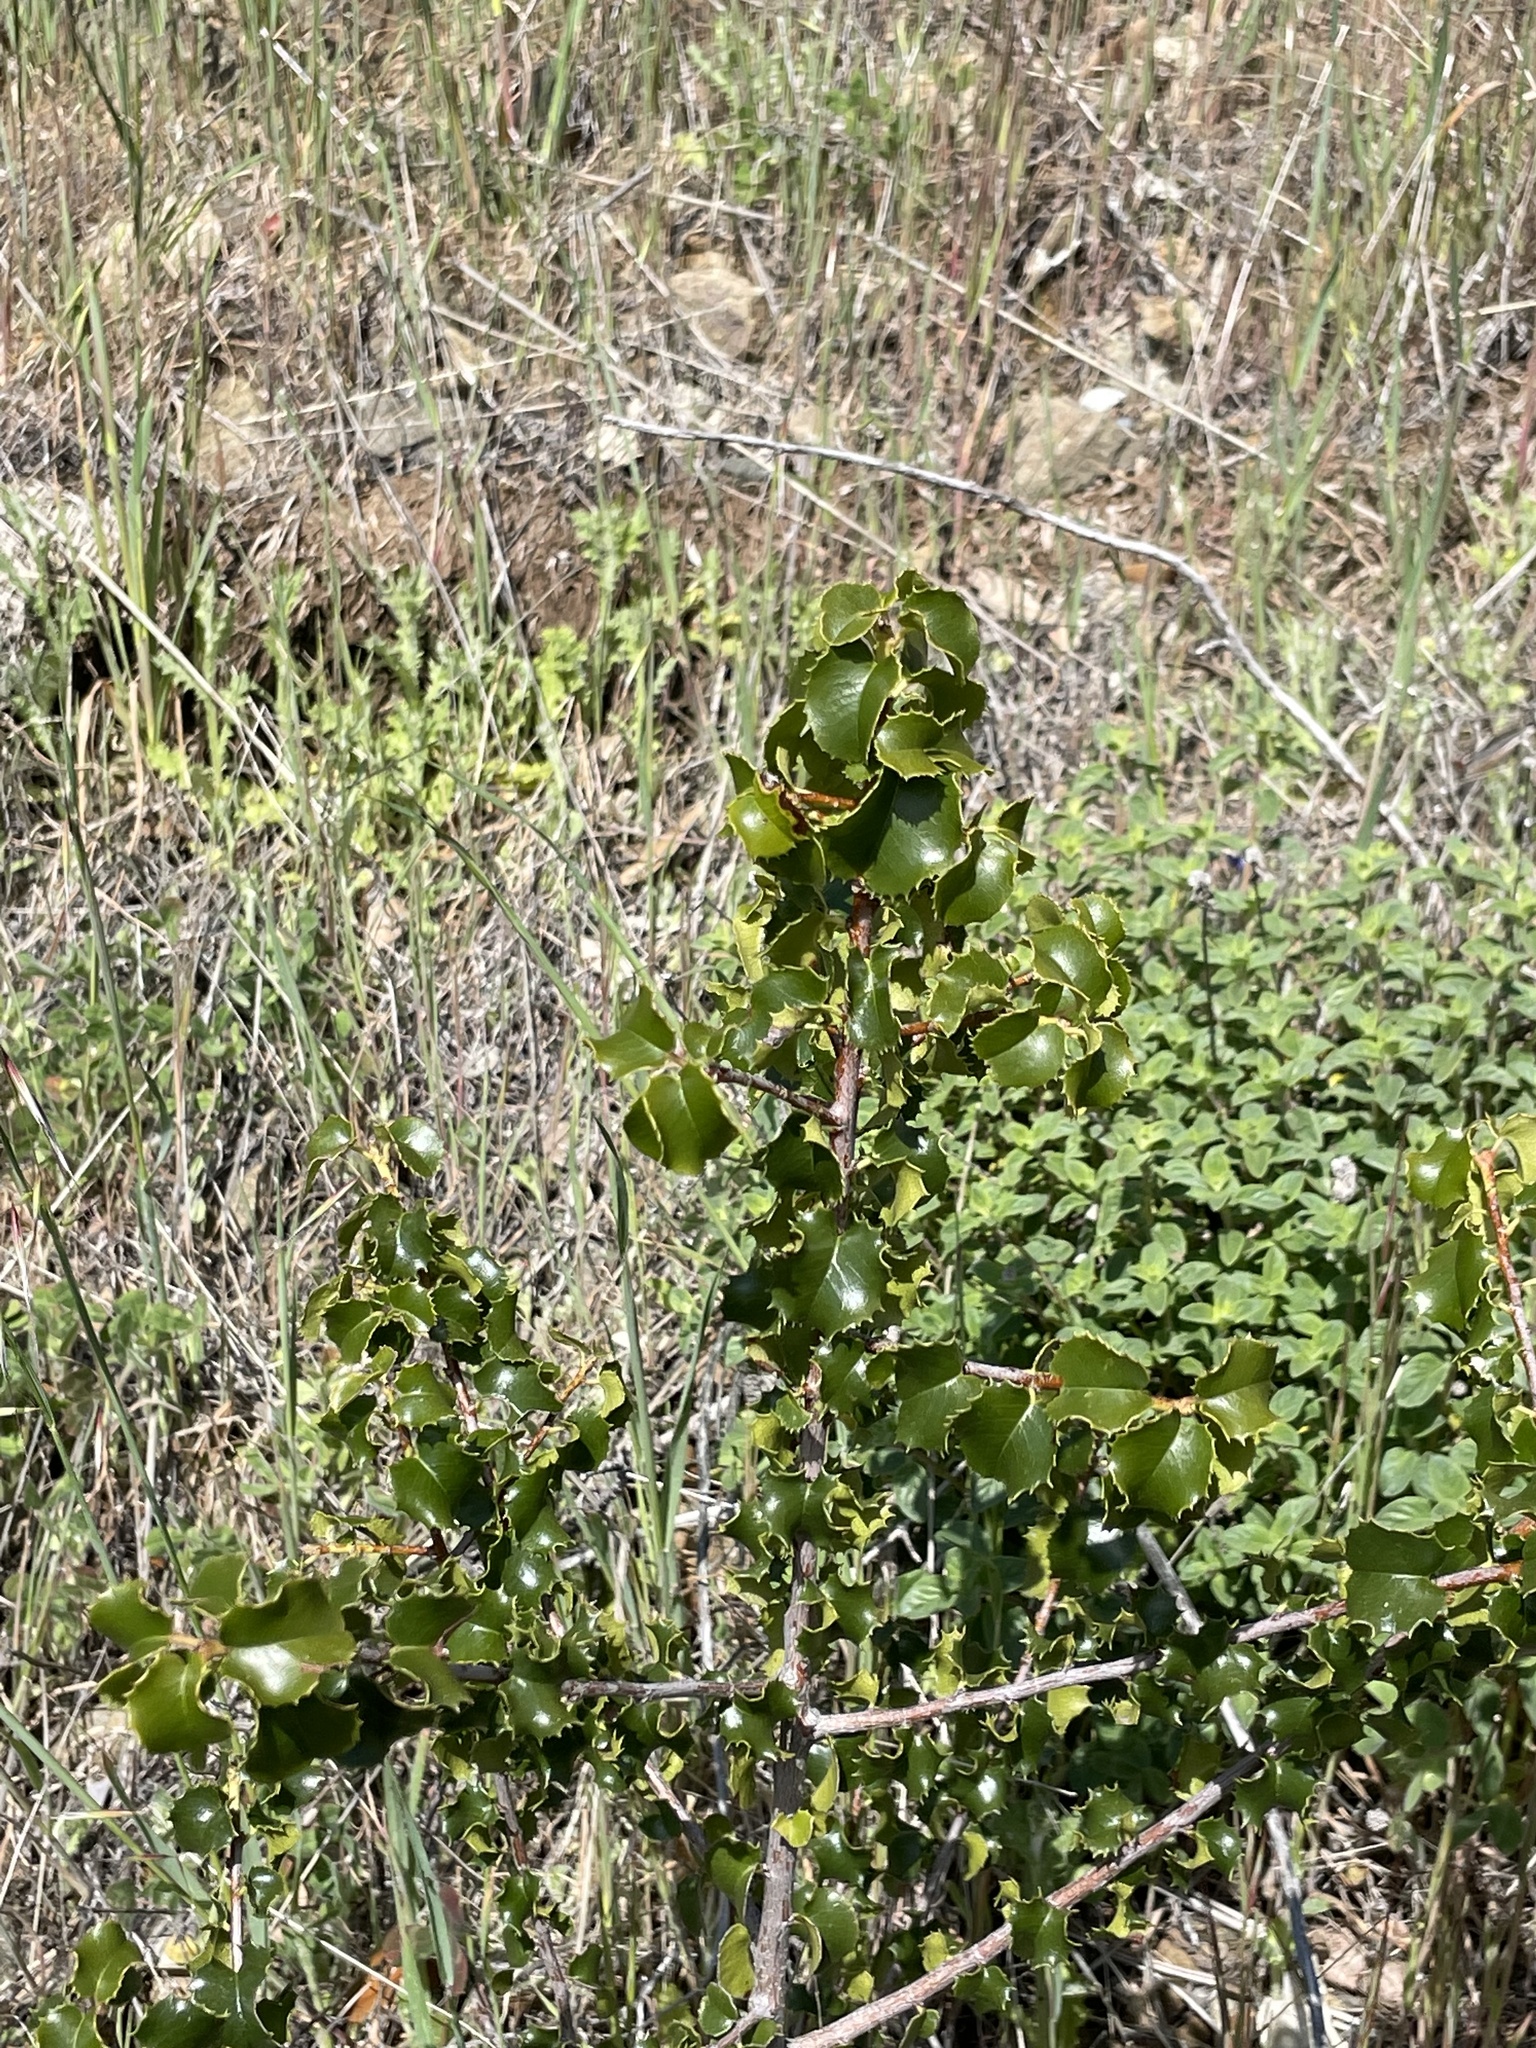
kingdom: Plantae
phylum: Tracheophyta
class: Magnoliopsida
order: Rosales
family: Rosaceae
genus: Prunus
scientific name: Prunus ilicifolia
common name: Hollyleaf cherry
